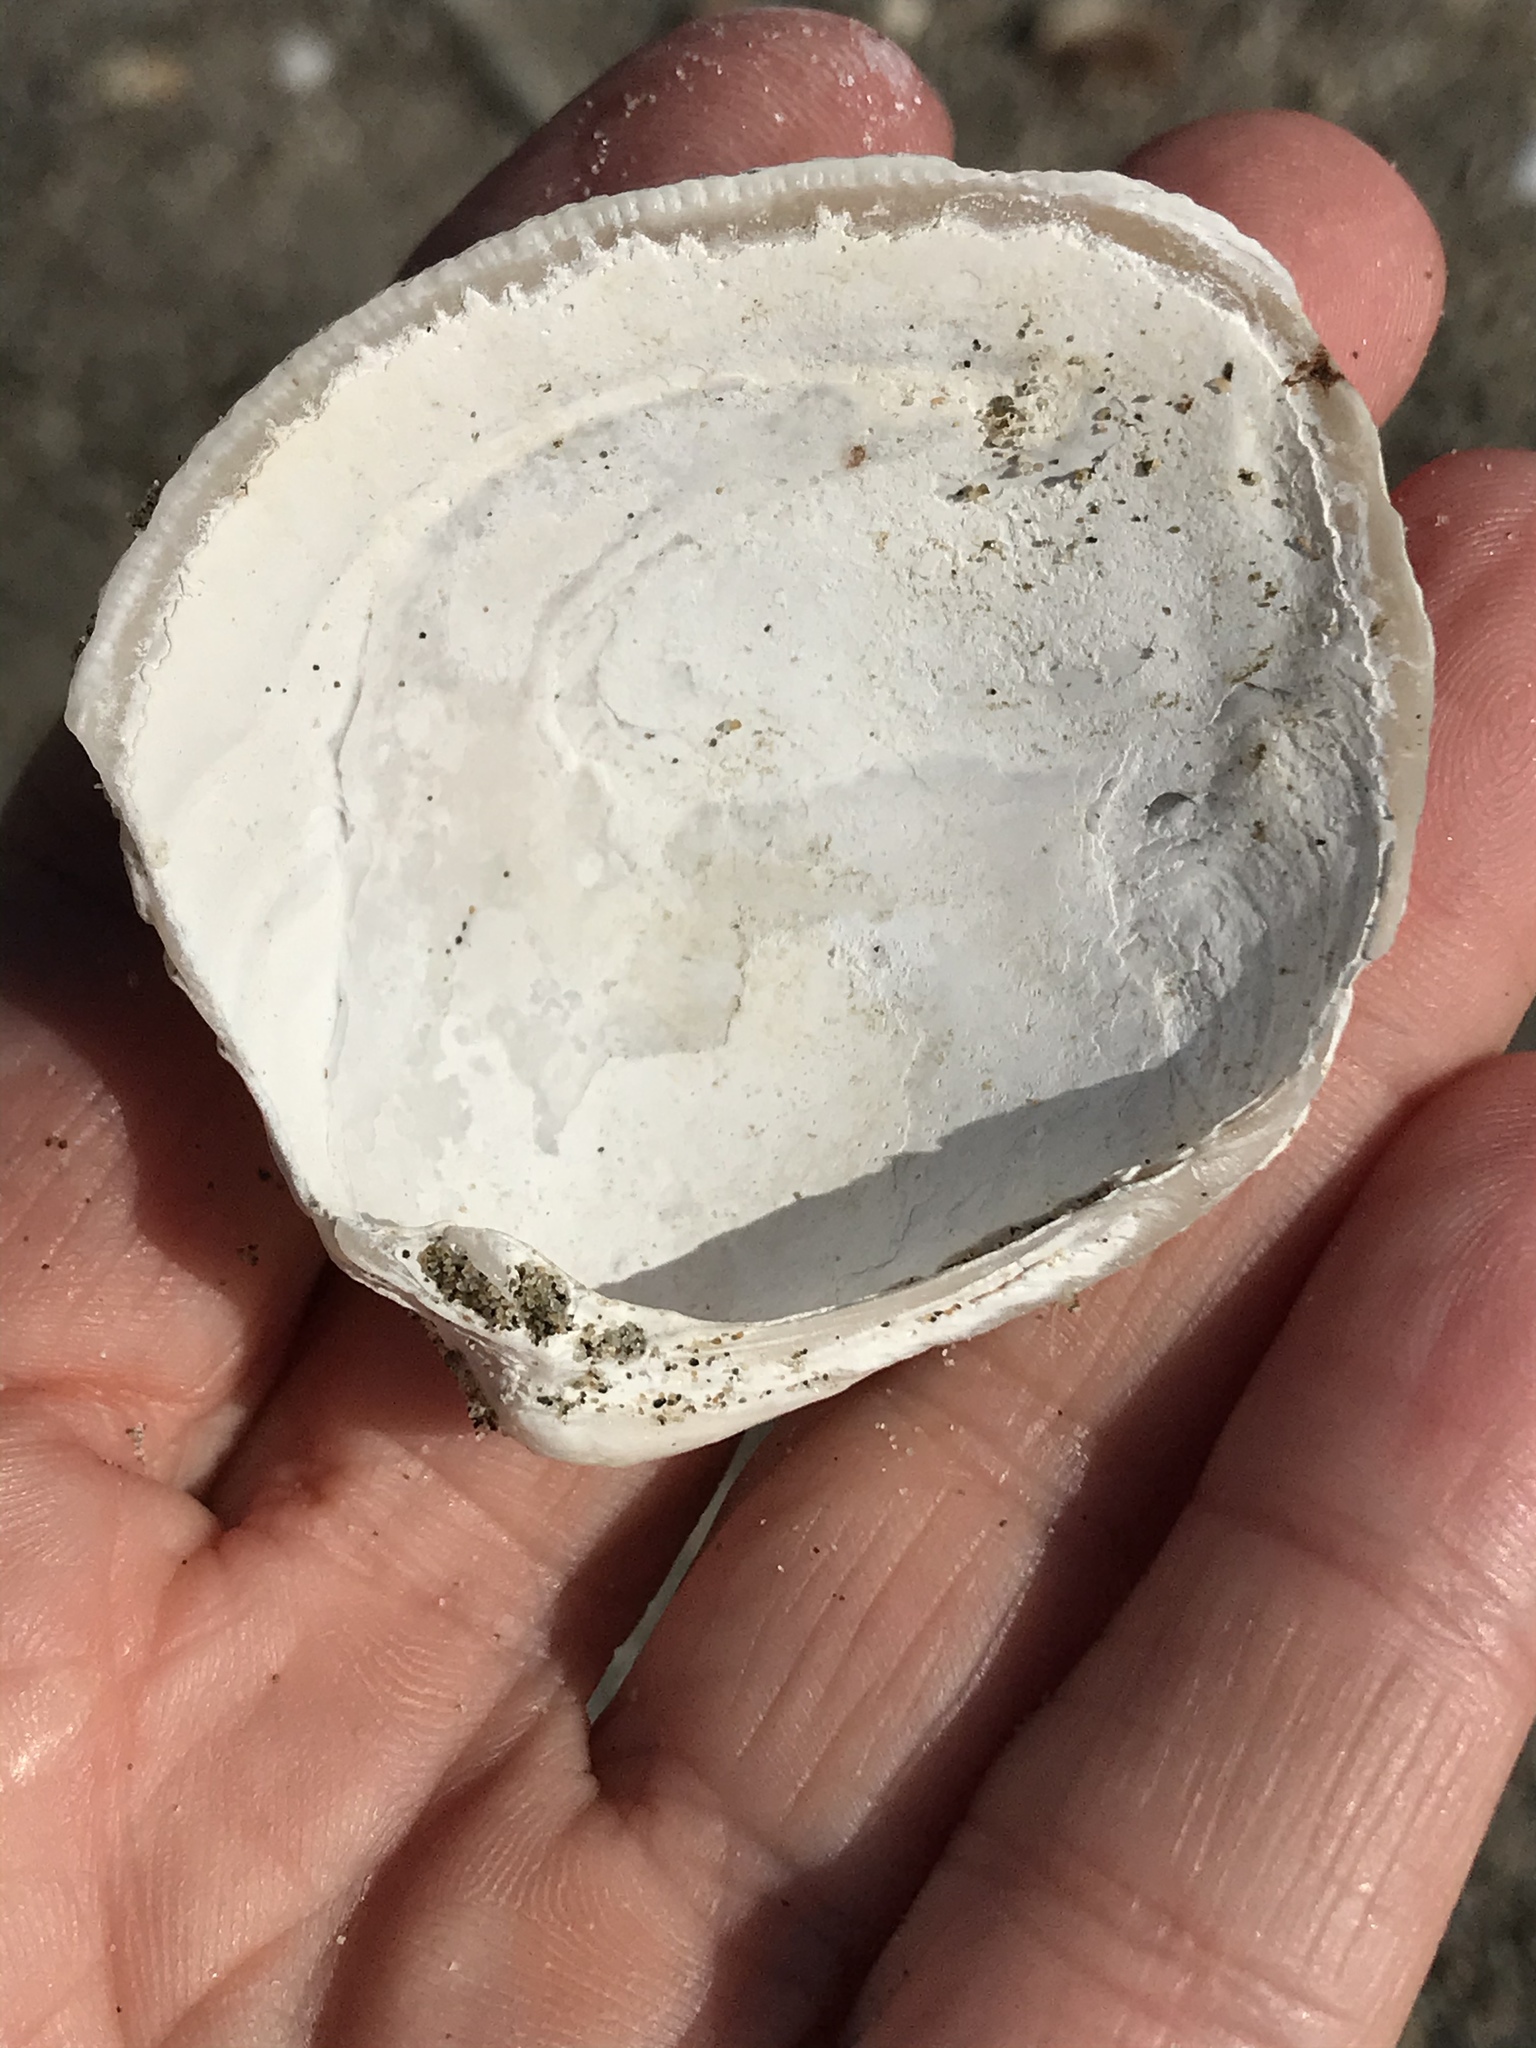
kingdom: Animalia
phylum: Mollusca
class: Bivalvia
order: Venerida
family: Veneridae
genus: Leukoma
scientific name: Leukoma staminea
